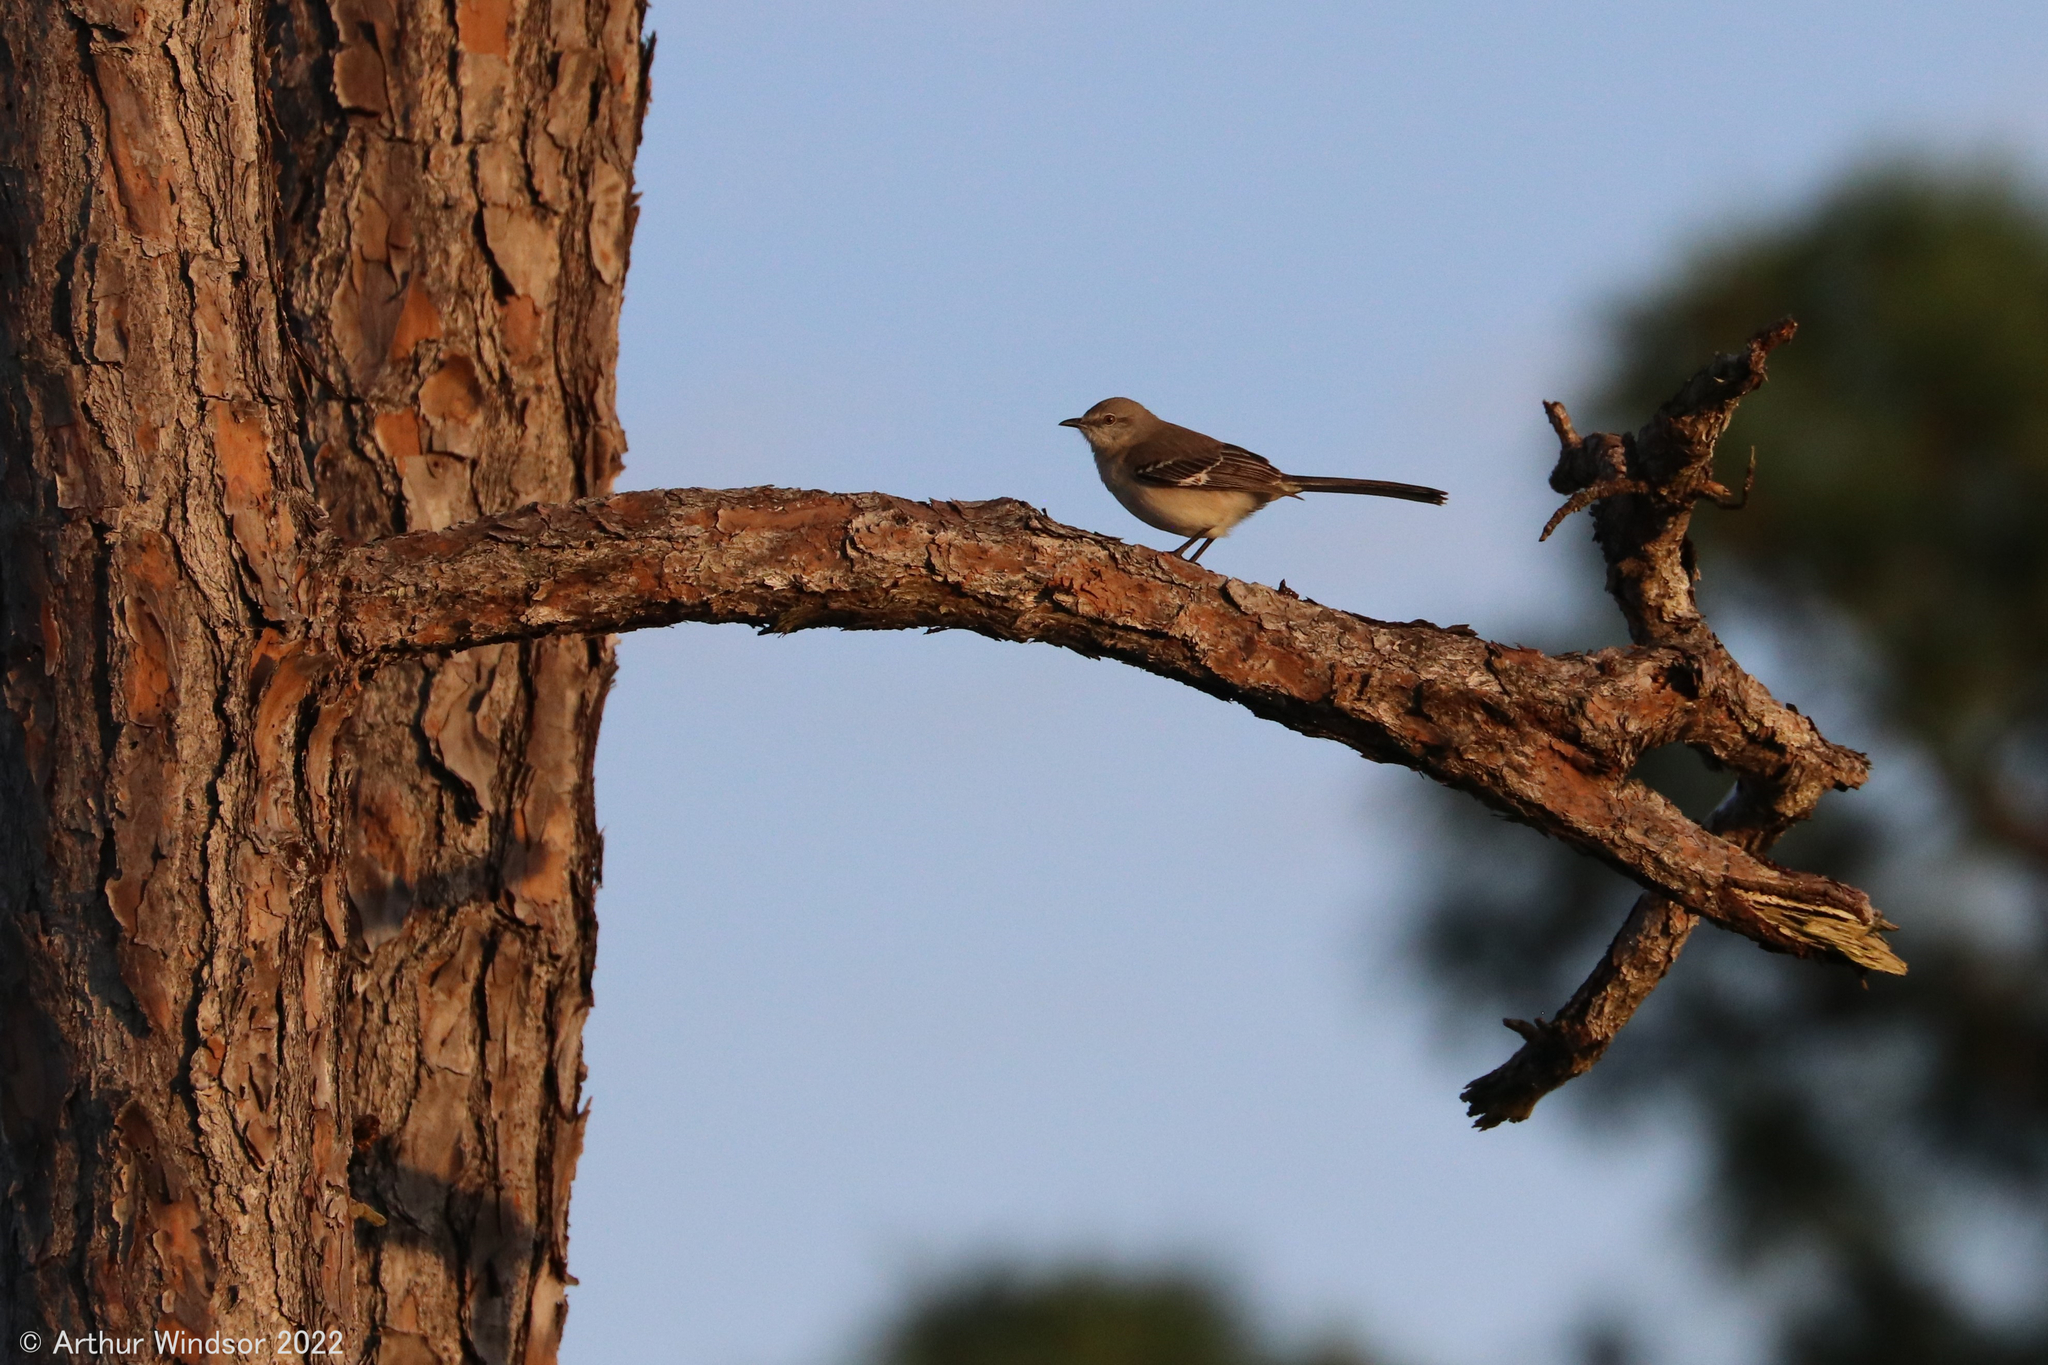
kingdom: Animalia
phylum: Chordata
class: Aves
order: Passeriformes
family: Mimidae
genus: Mimus
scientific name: Mimus polyglottos
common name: Northern mockingbird
